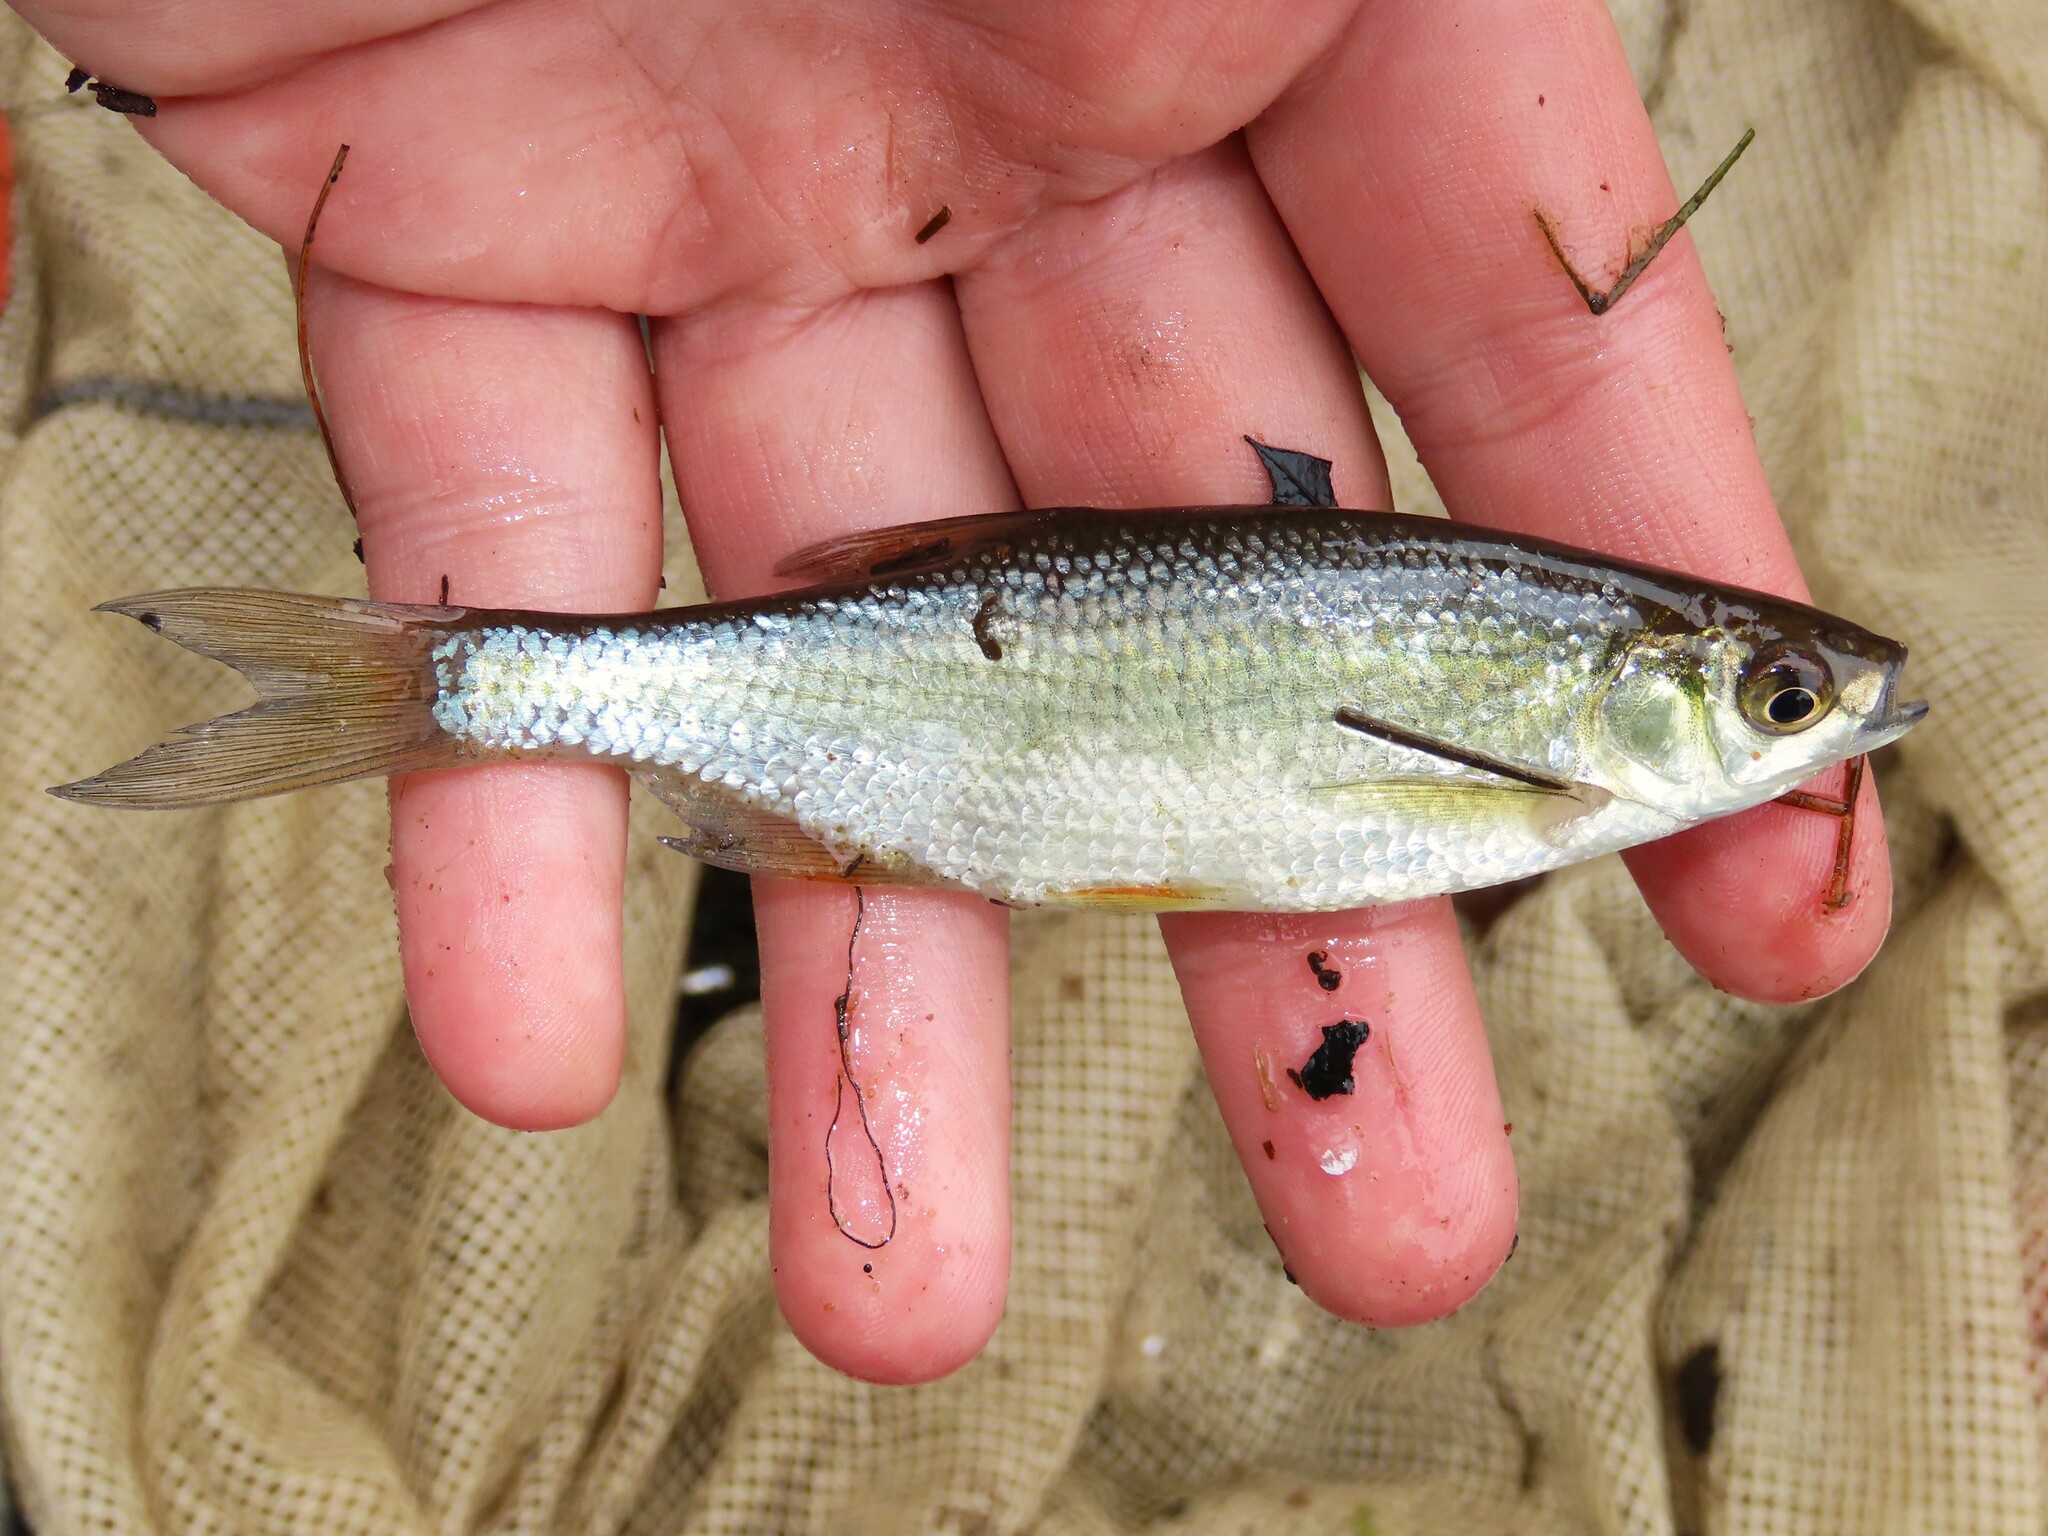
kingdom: Animalia
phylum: Chordata
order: Cypriniformes
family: Cyprinidae
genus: Notemigonus
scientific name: Notemigonus crysoleucas
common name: Golden shiner
